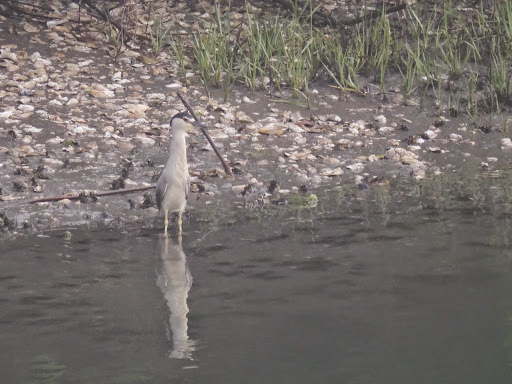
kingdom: Animalia
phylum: Chordata
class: Aves
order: Pelecaniformes
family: Ardeidae
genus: Nycticorax
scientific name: Nycticorax nycticorax
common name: Black-crowned night heron
